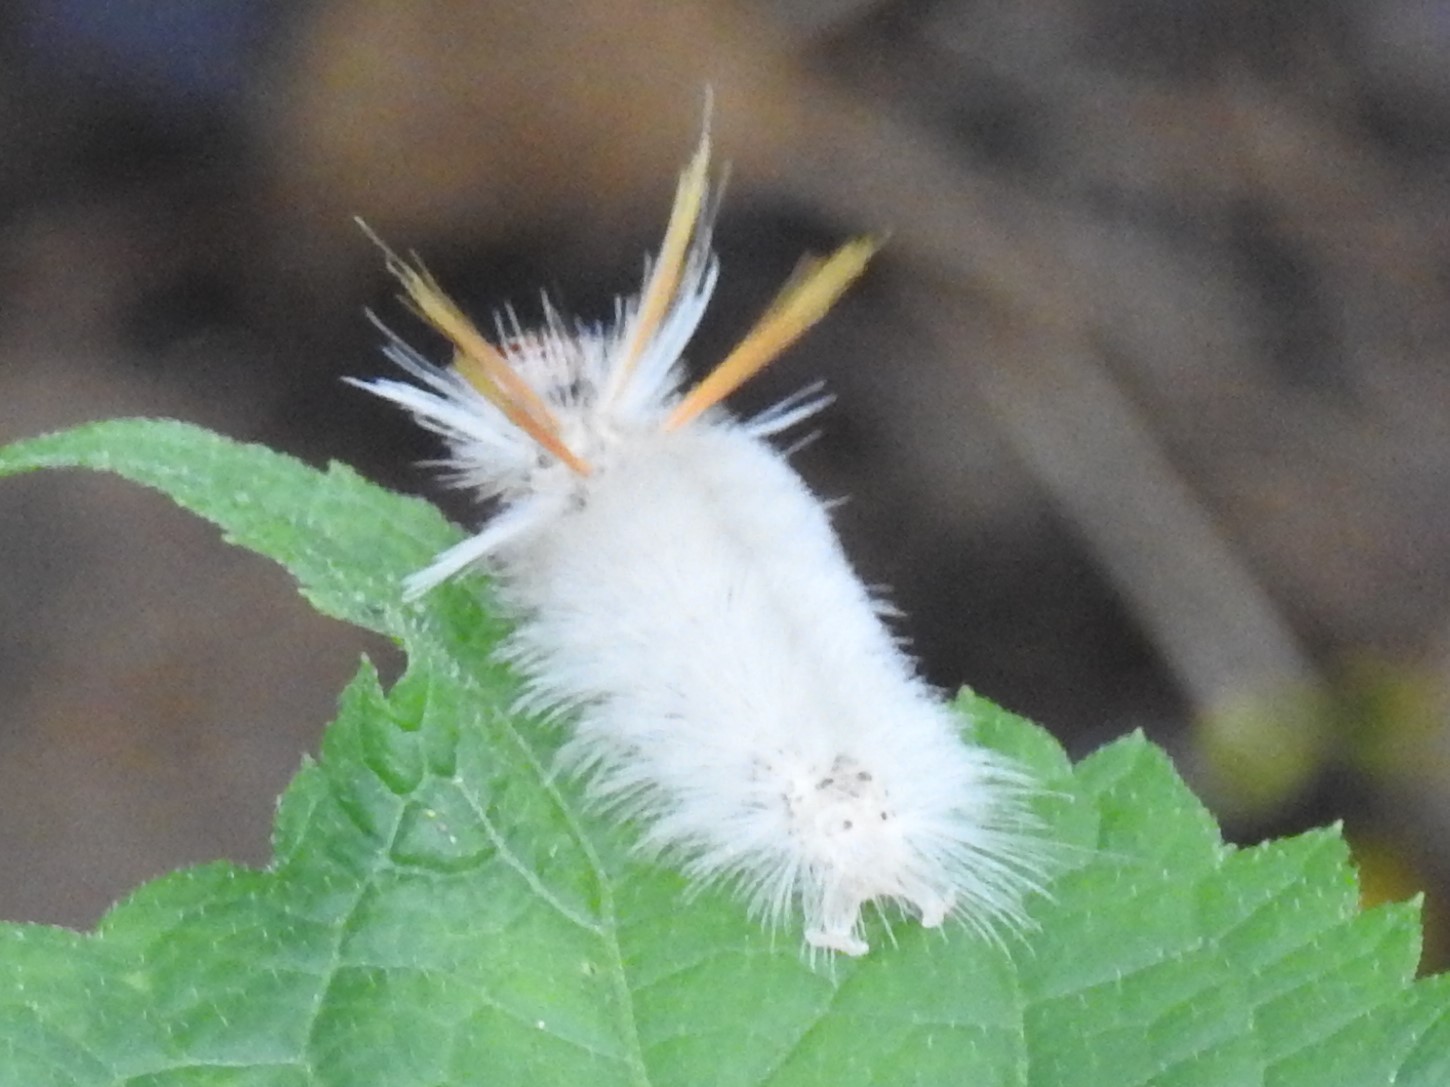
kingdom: Animalia
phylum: Arthropoda
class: Insecta
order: Lepidoptera
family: Erebidae
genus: Halysidota
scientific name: Halysidota harrisii
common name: Sycamore tussock moth
